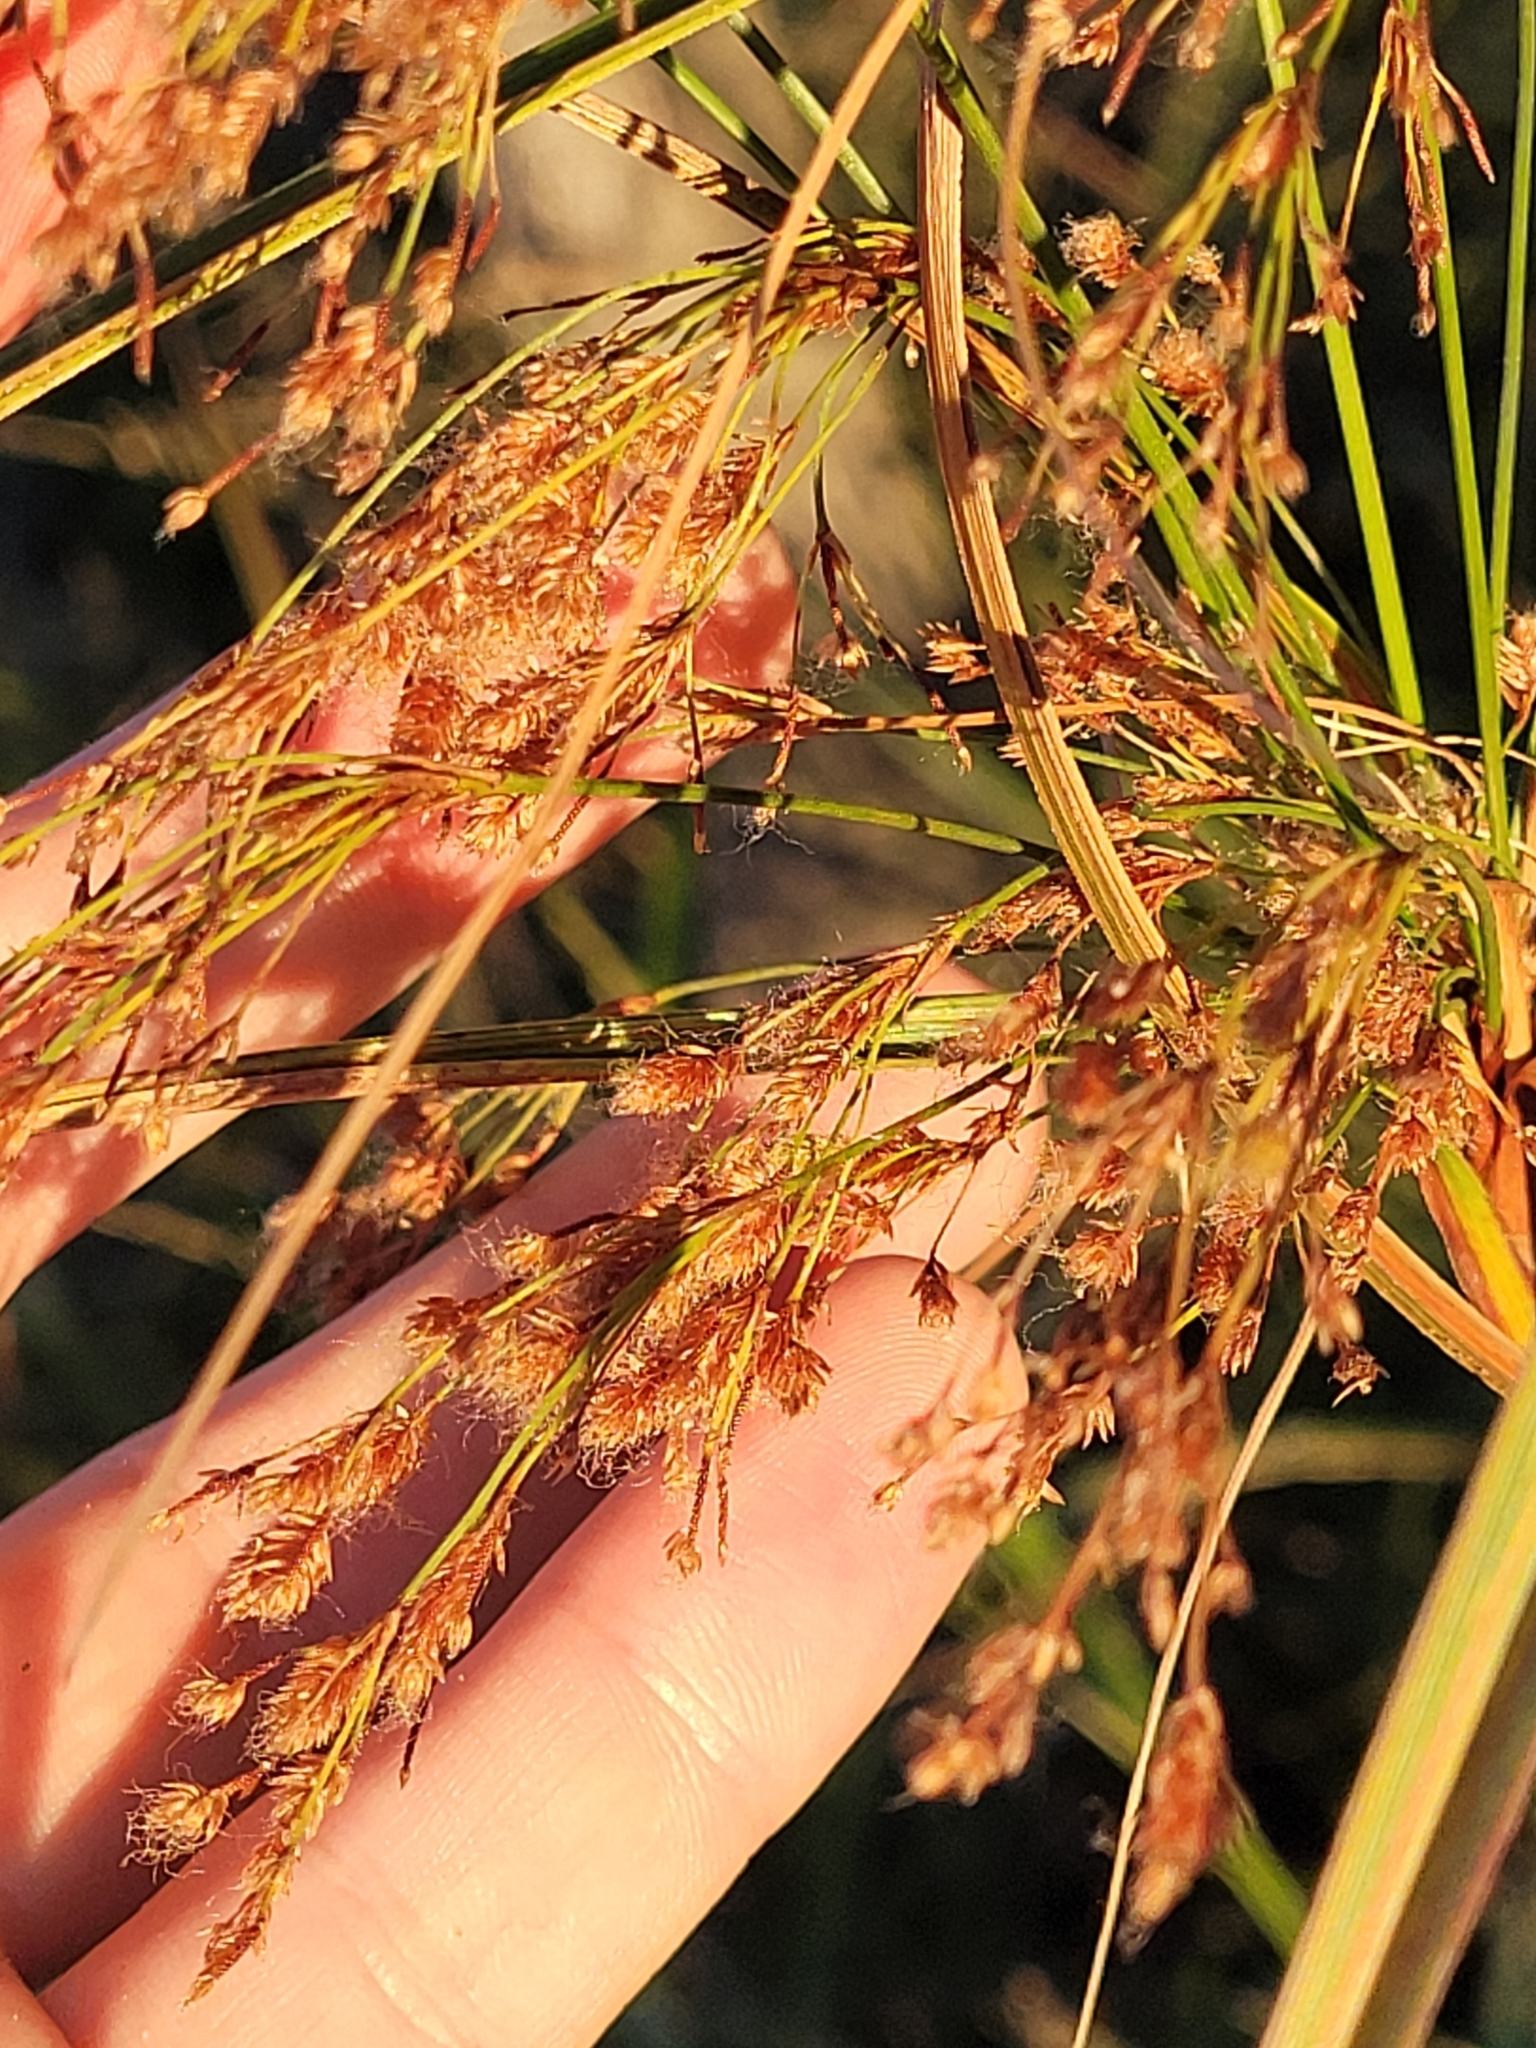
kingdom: Plantae
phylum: Tracheophyta
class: Liliopsida
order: Poales
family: Cyperaceae
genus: Scirpus
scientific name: Scirpus cyperinus
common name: Black-sheathed bulrush
